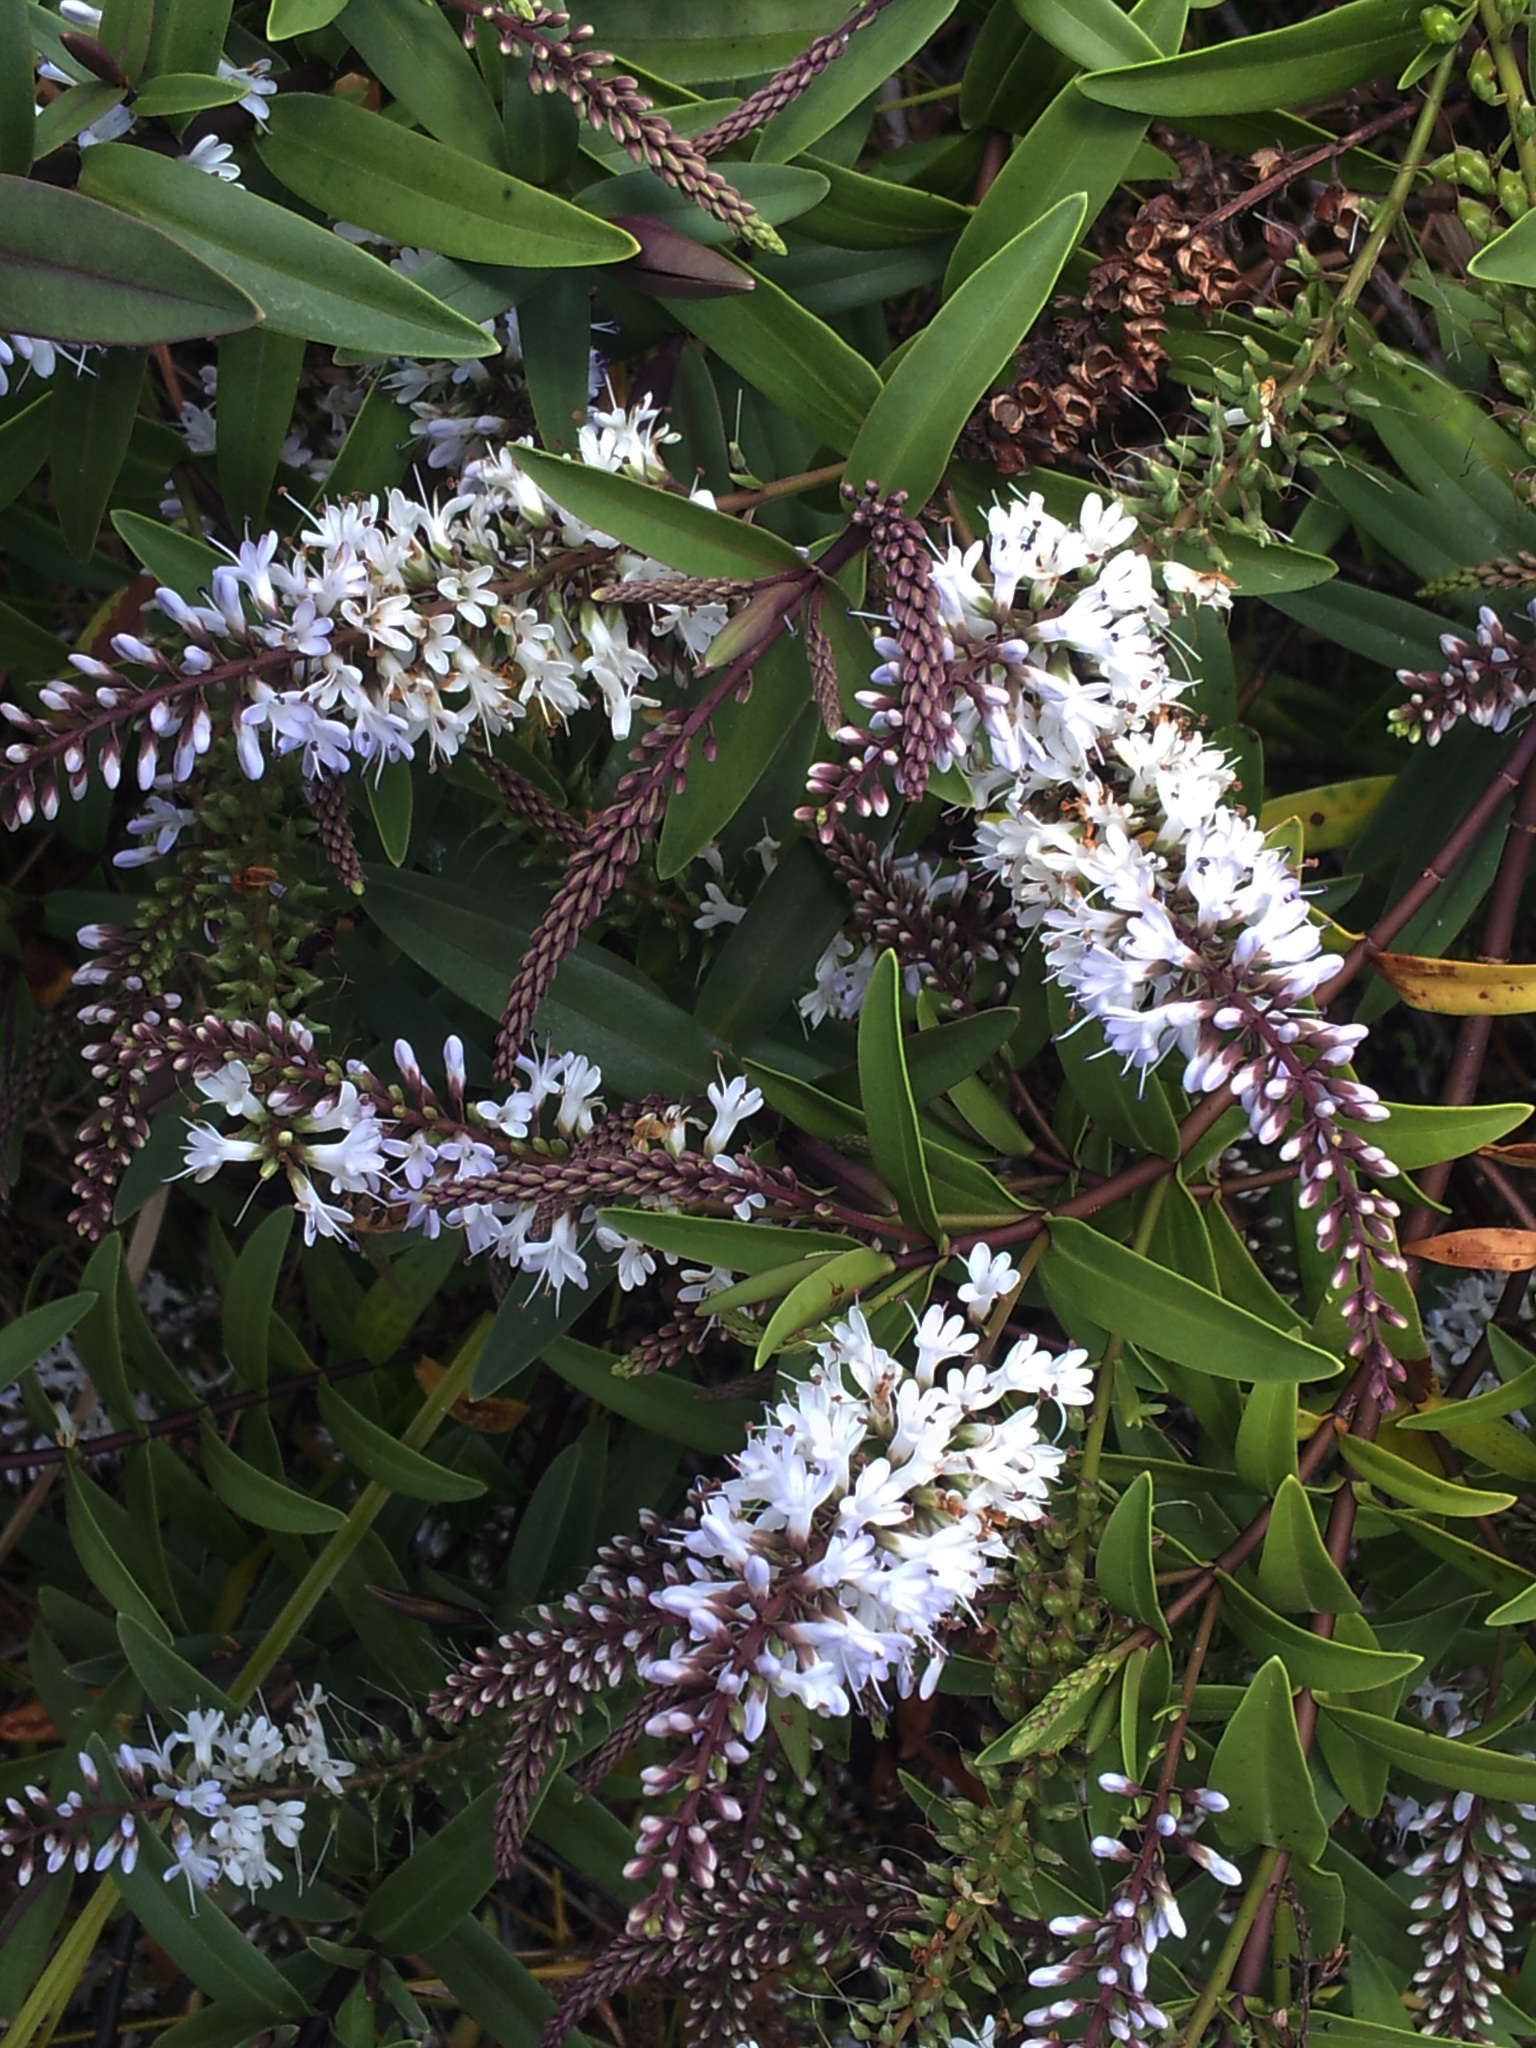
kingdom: Plantae
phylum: Tracheophyta
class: Magnoliopsida
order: Lamiales
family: Plantaginaceae
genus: Veronica
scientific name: Veronica bishopiana
